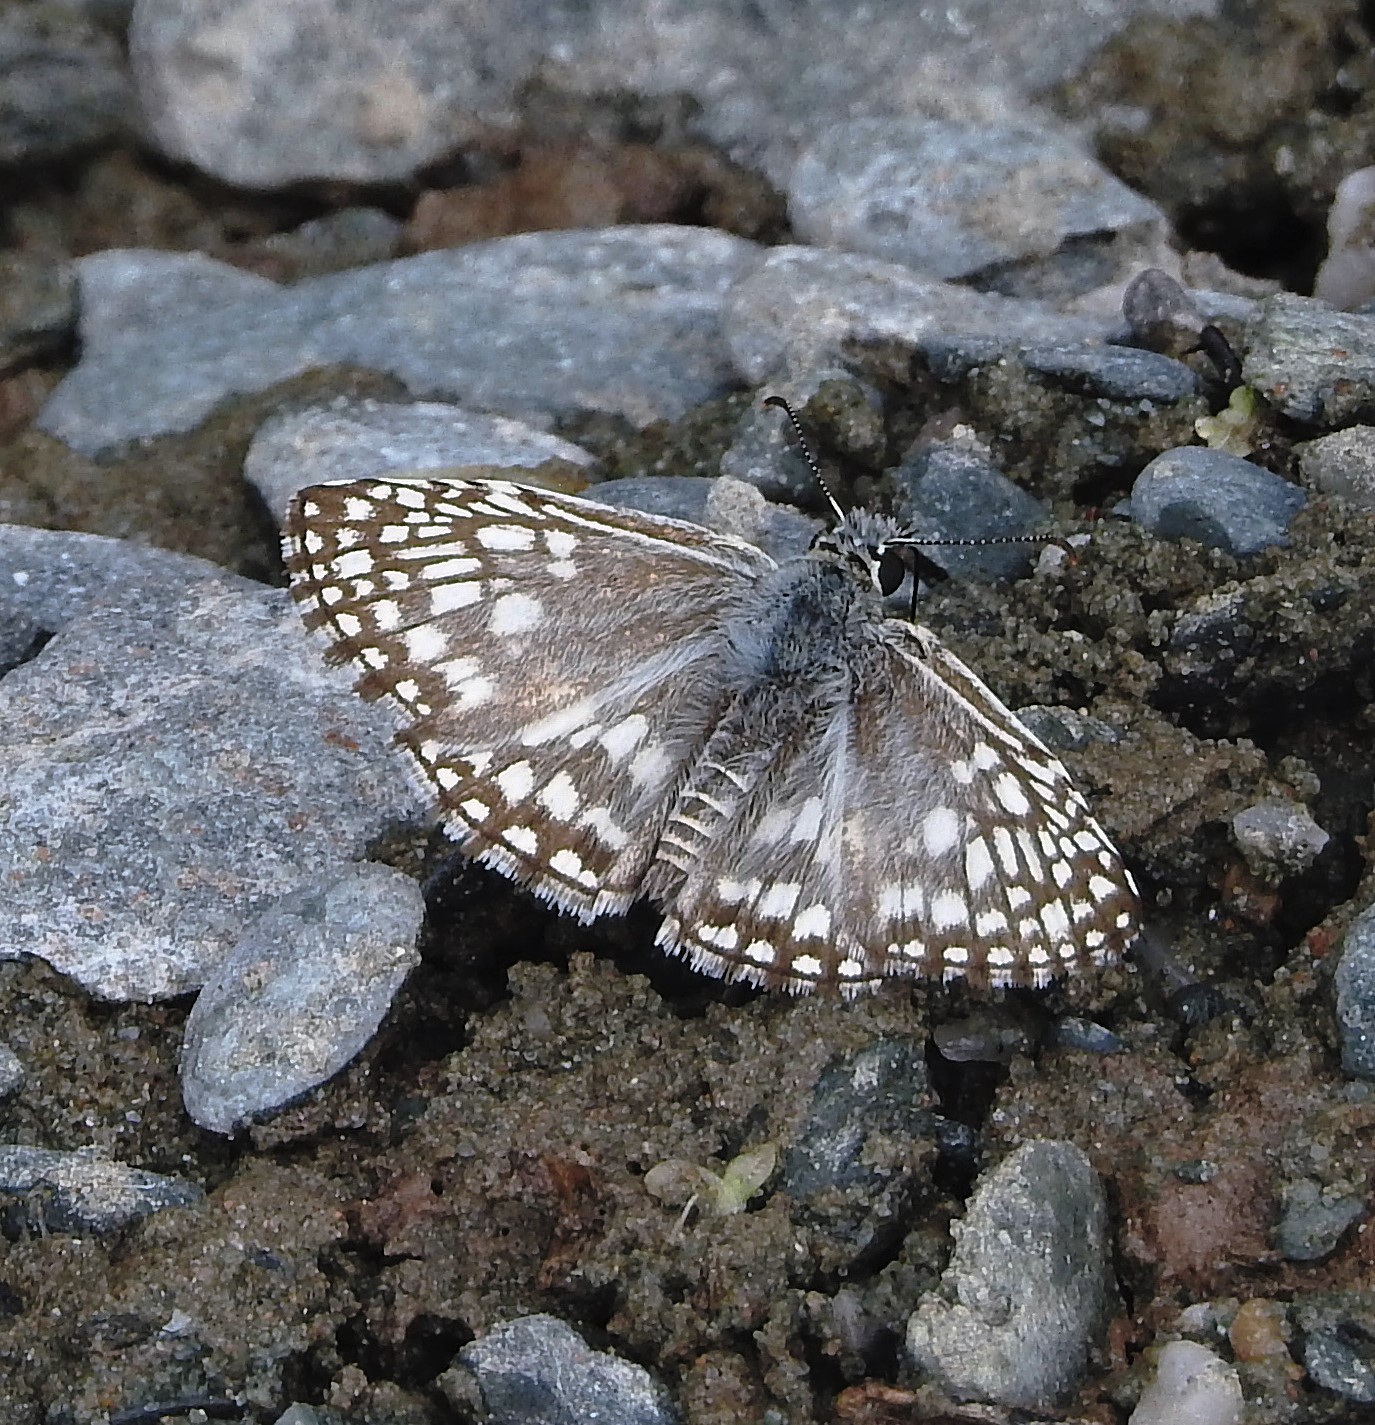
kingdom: Animalia
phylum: Arthropoda
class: Insecta
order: Lepidoptera
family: Hesperiidae
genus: Pyrgus
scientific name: Pyrgus oileus
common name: Tropical checkered-skipper
